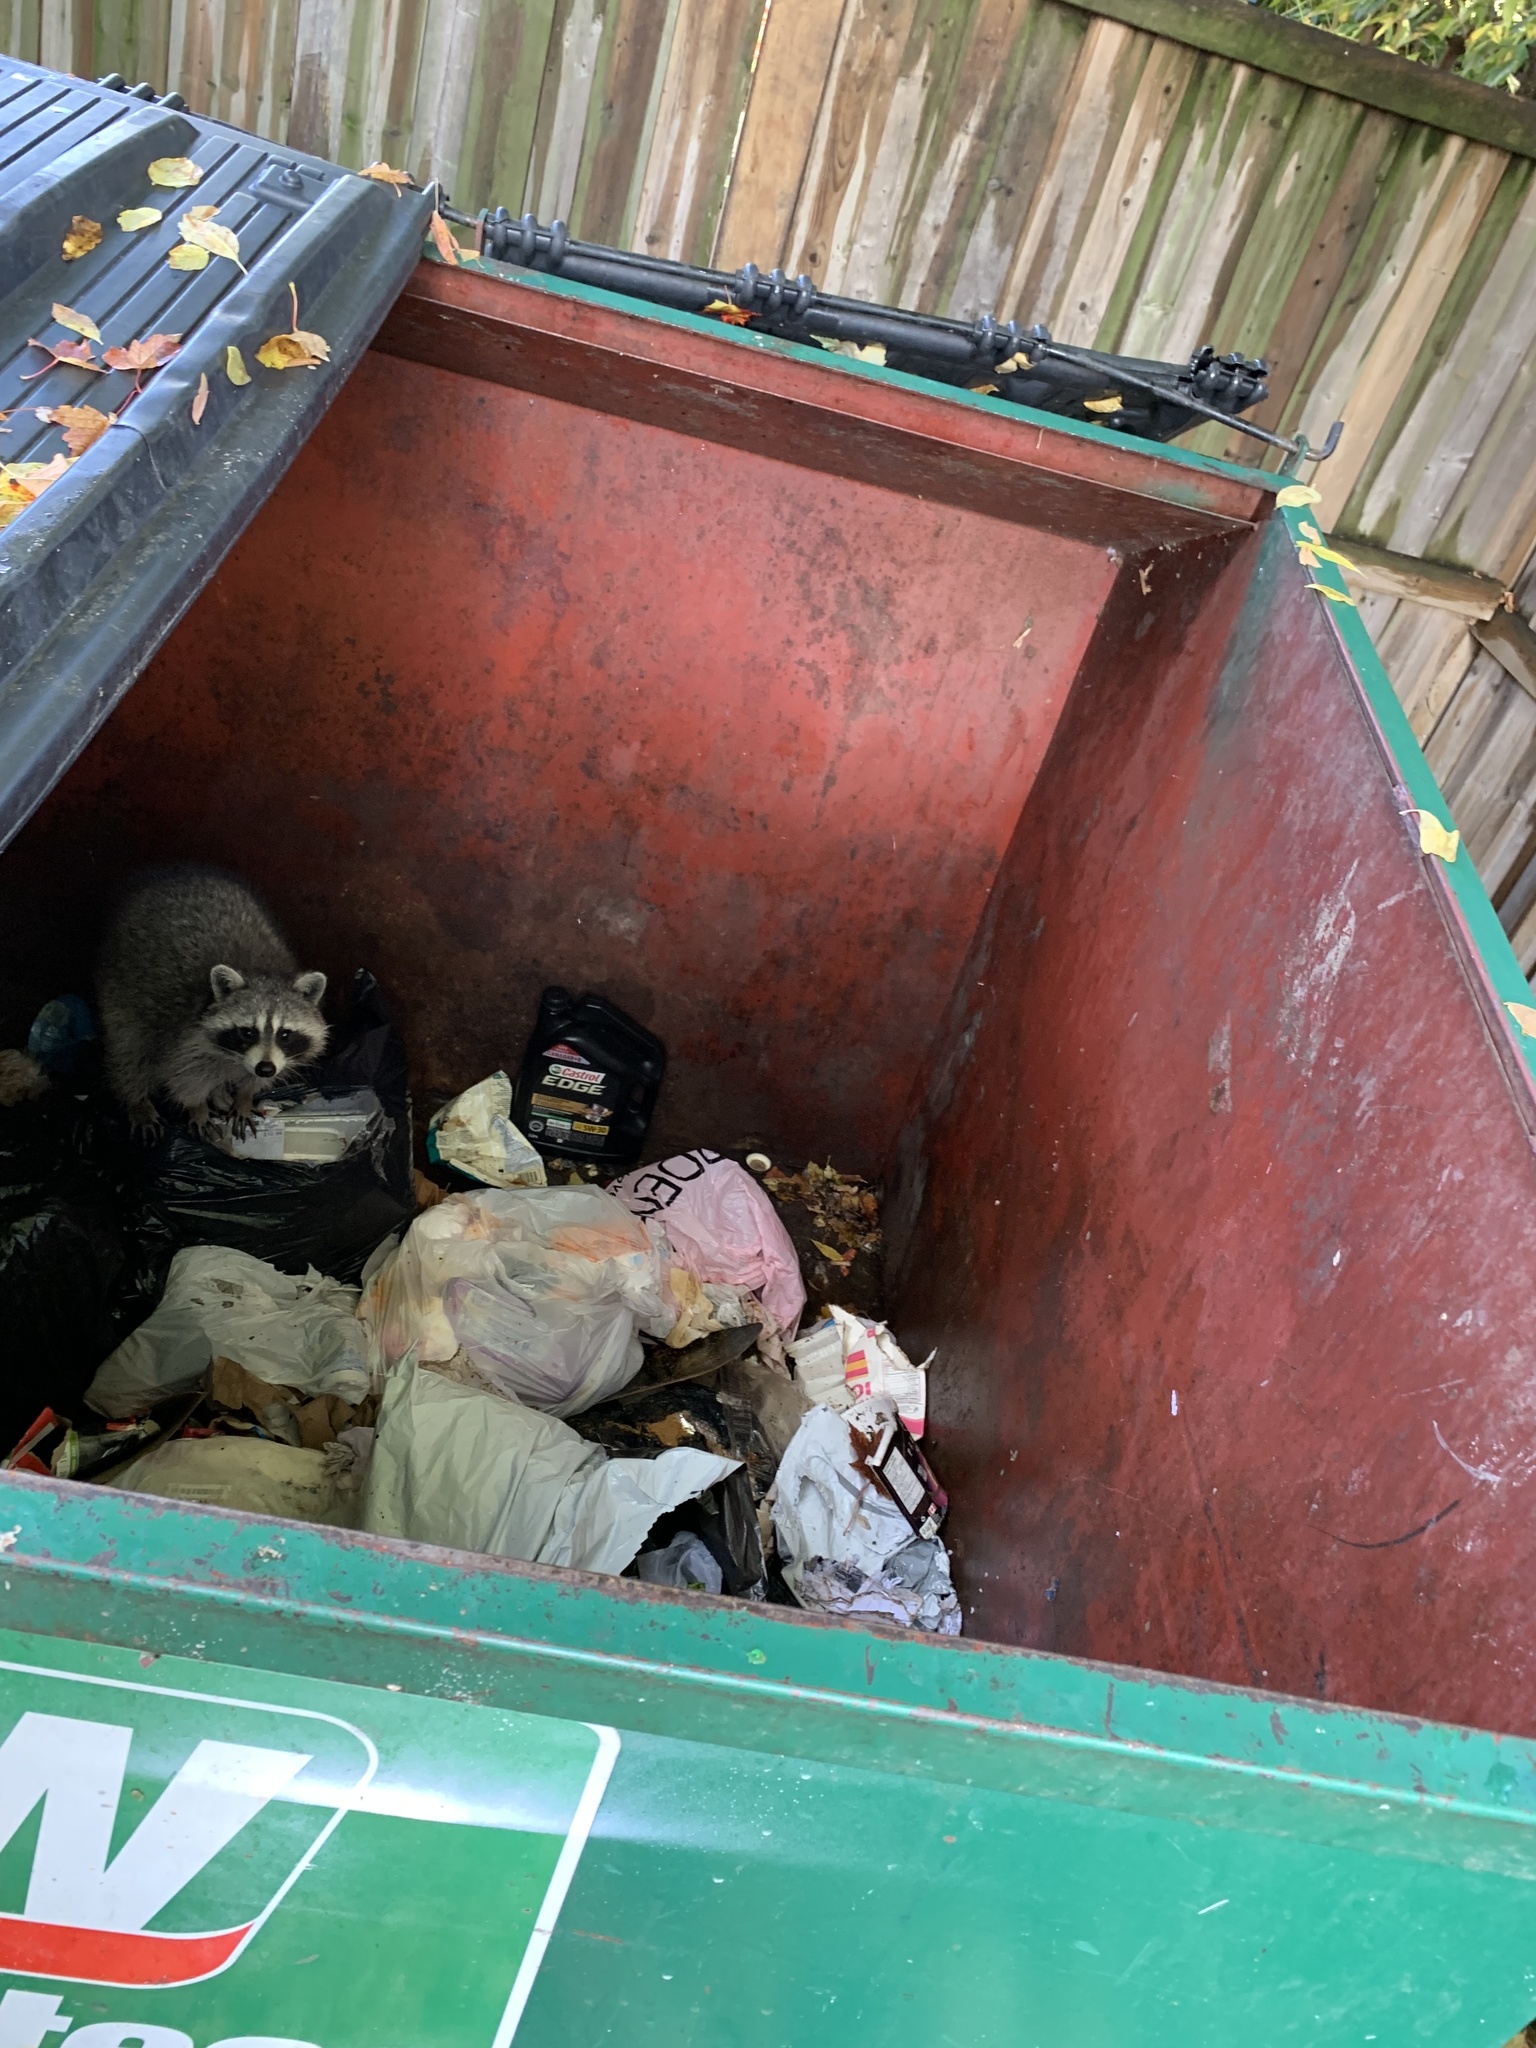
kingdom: Animalia
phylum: Chordata
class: Mammalia
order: Carnivora
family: Procyonidae
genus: Procyon
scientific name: Procyon lotor
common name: Raccoon
